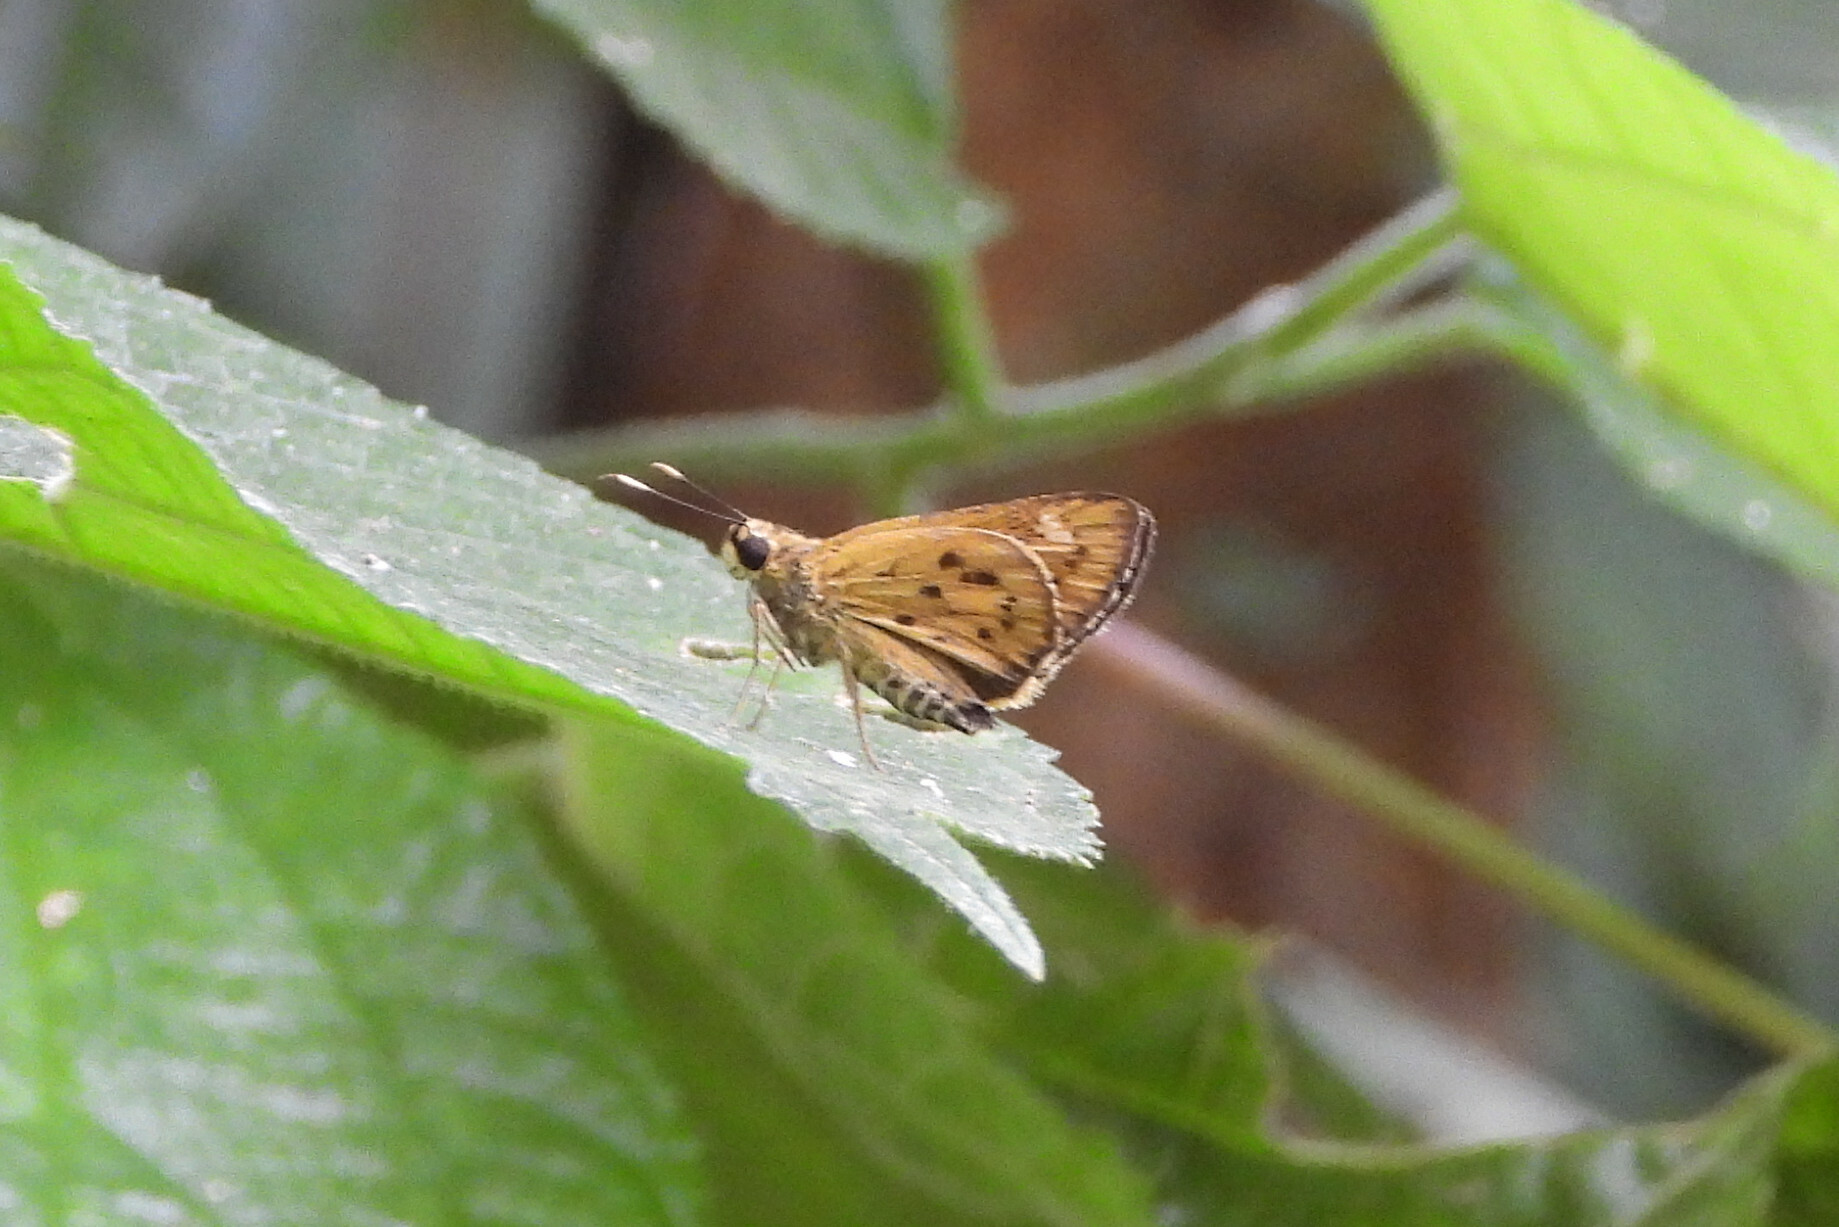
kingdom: Animalia
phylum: Arthropoda
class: Insecta
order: Lepidoptera
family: Hesperiidae
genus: Salanoemia
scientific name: Salanoemia noemi
